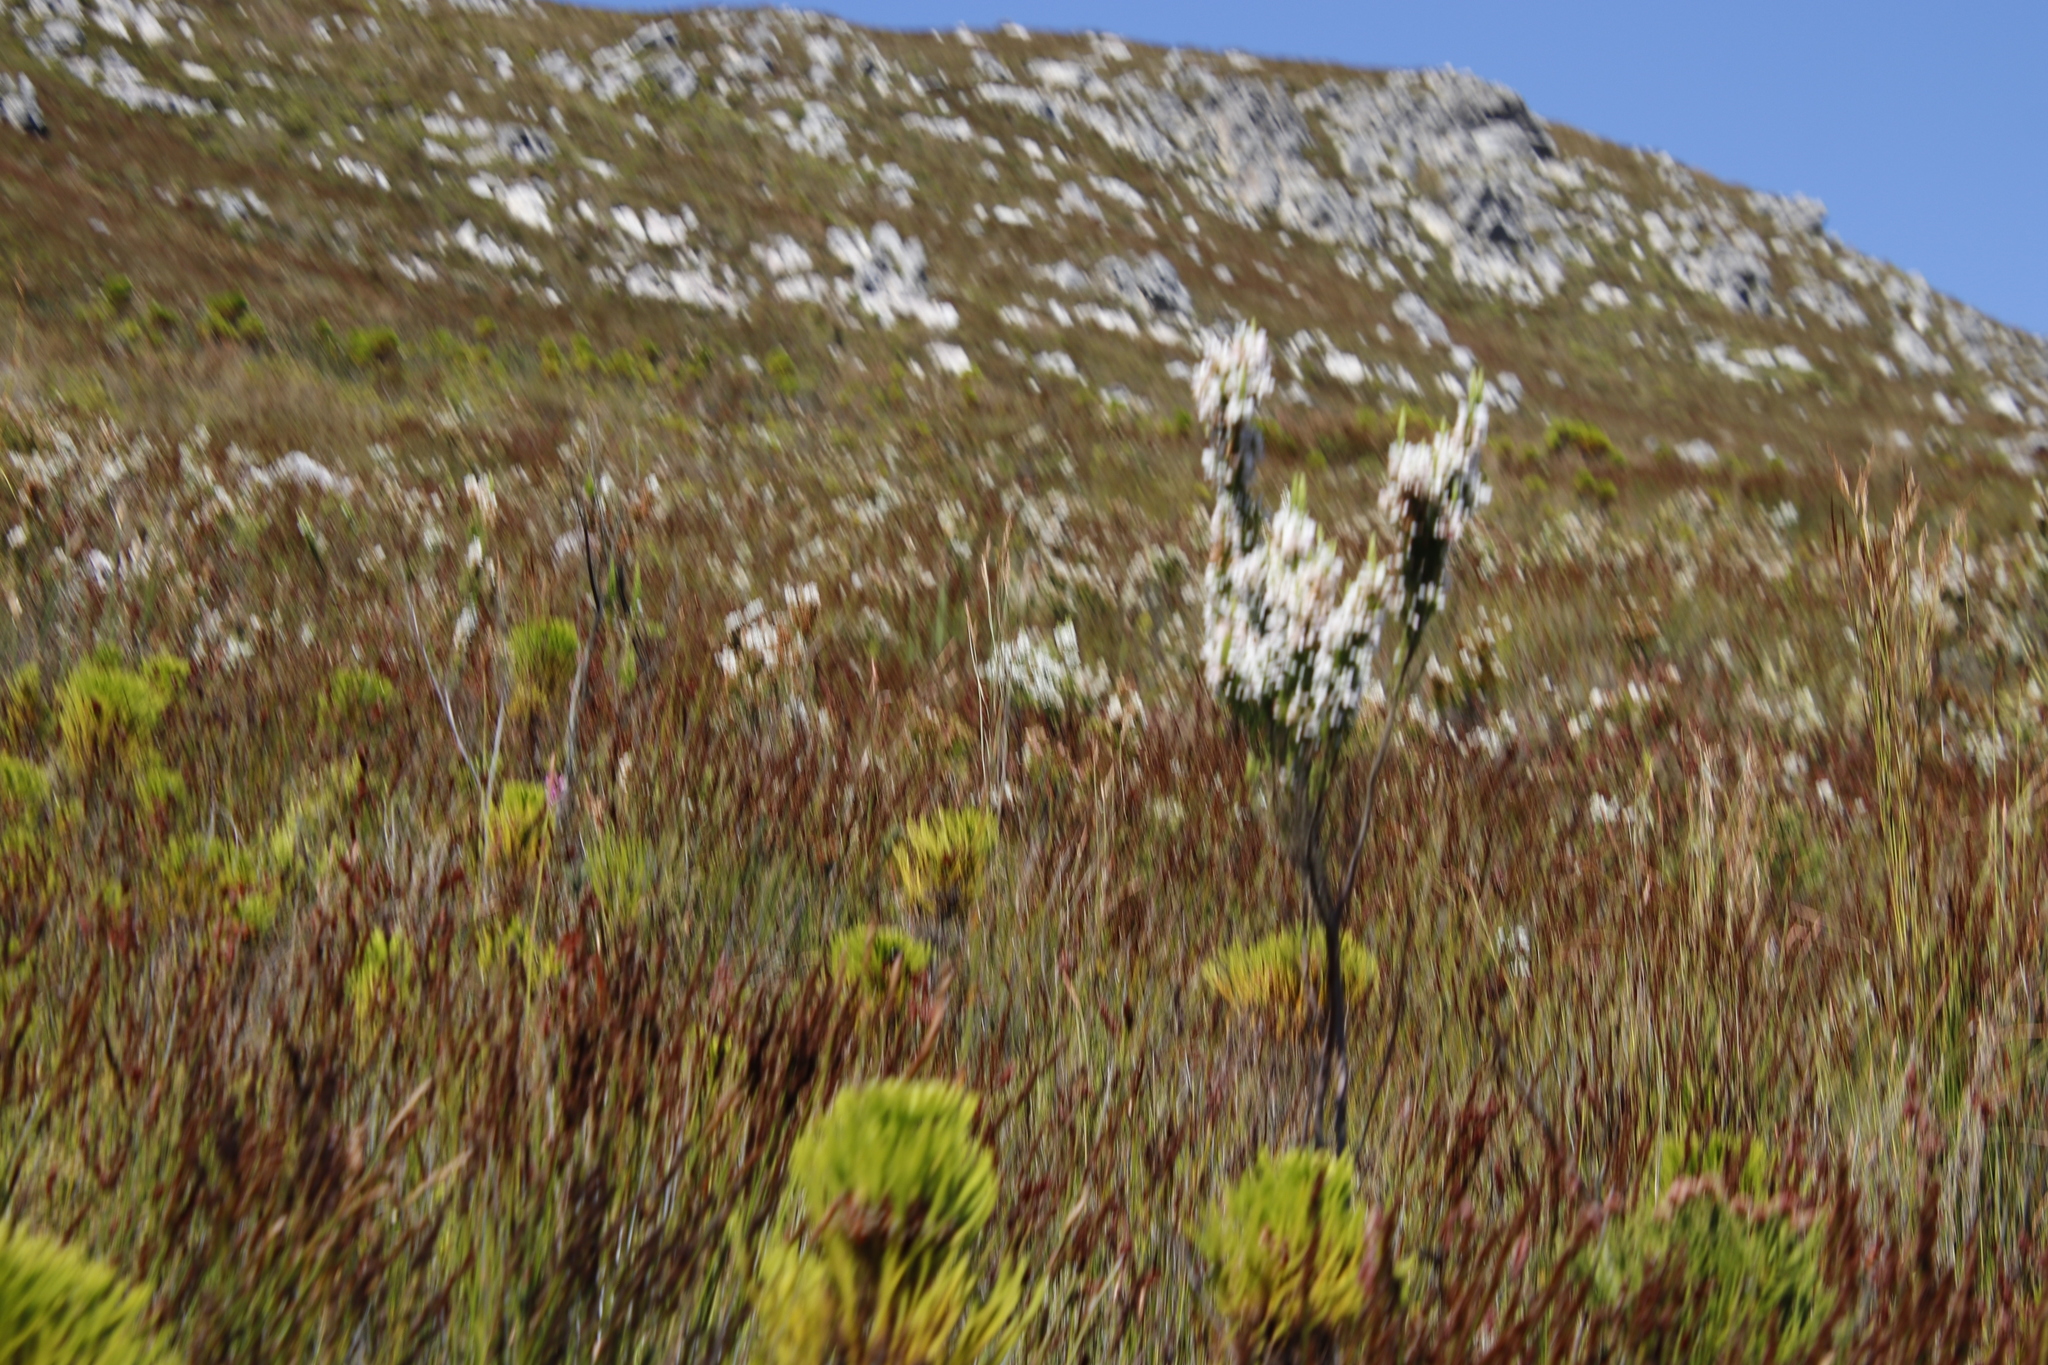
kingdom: Plantae
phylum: Tracheophyta
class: Magnoliopsida
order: Ericales
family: Ericaceae
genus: Erica
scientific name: Erica sitiens
